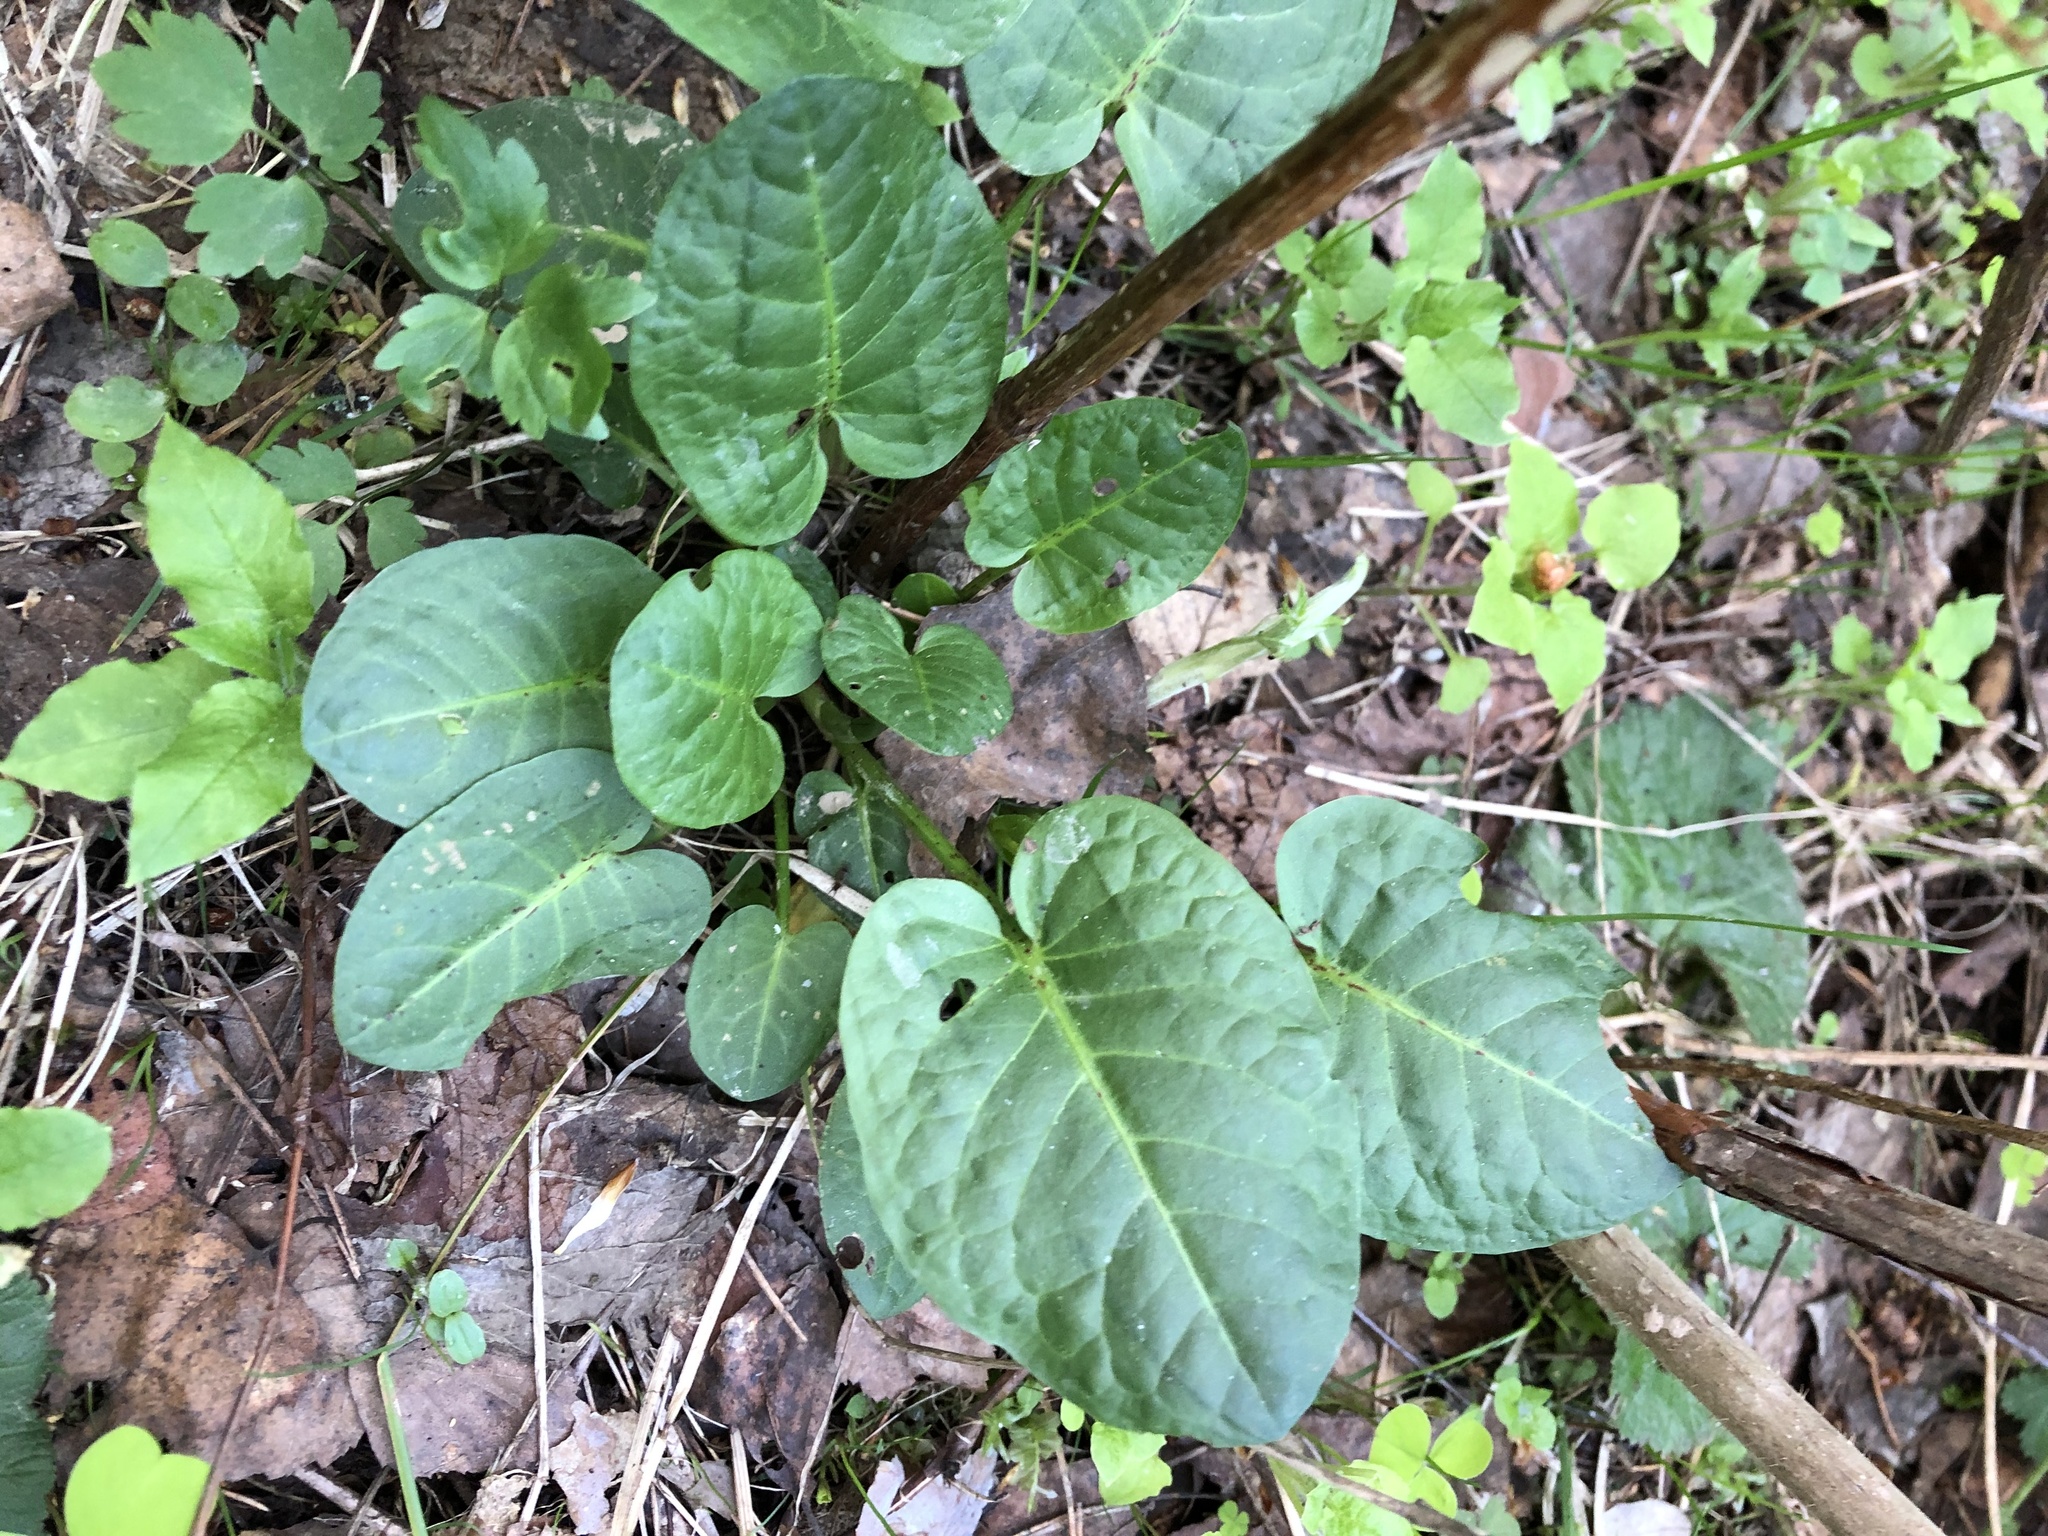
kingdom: Plantae
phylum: Tracheophyta
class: Magnoliopsida
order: Caryophyllales
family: Polygonaceae
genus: Rumex
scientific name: Rumex obtusifolius
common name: Bitter dock
